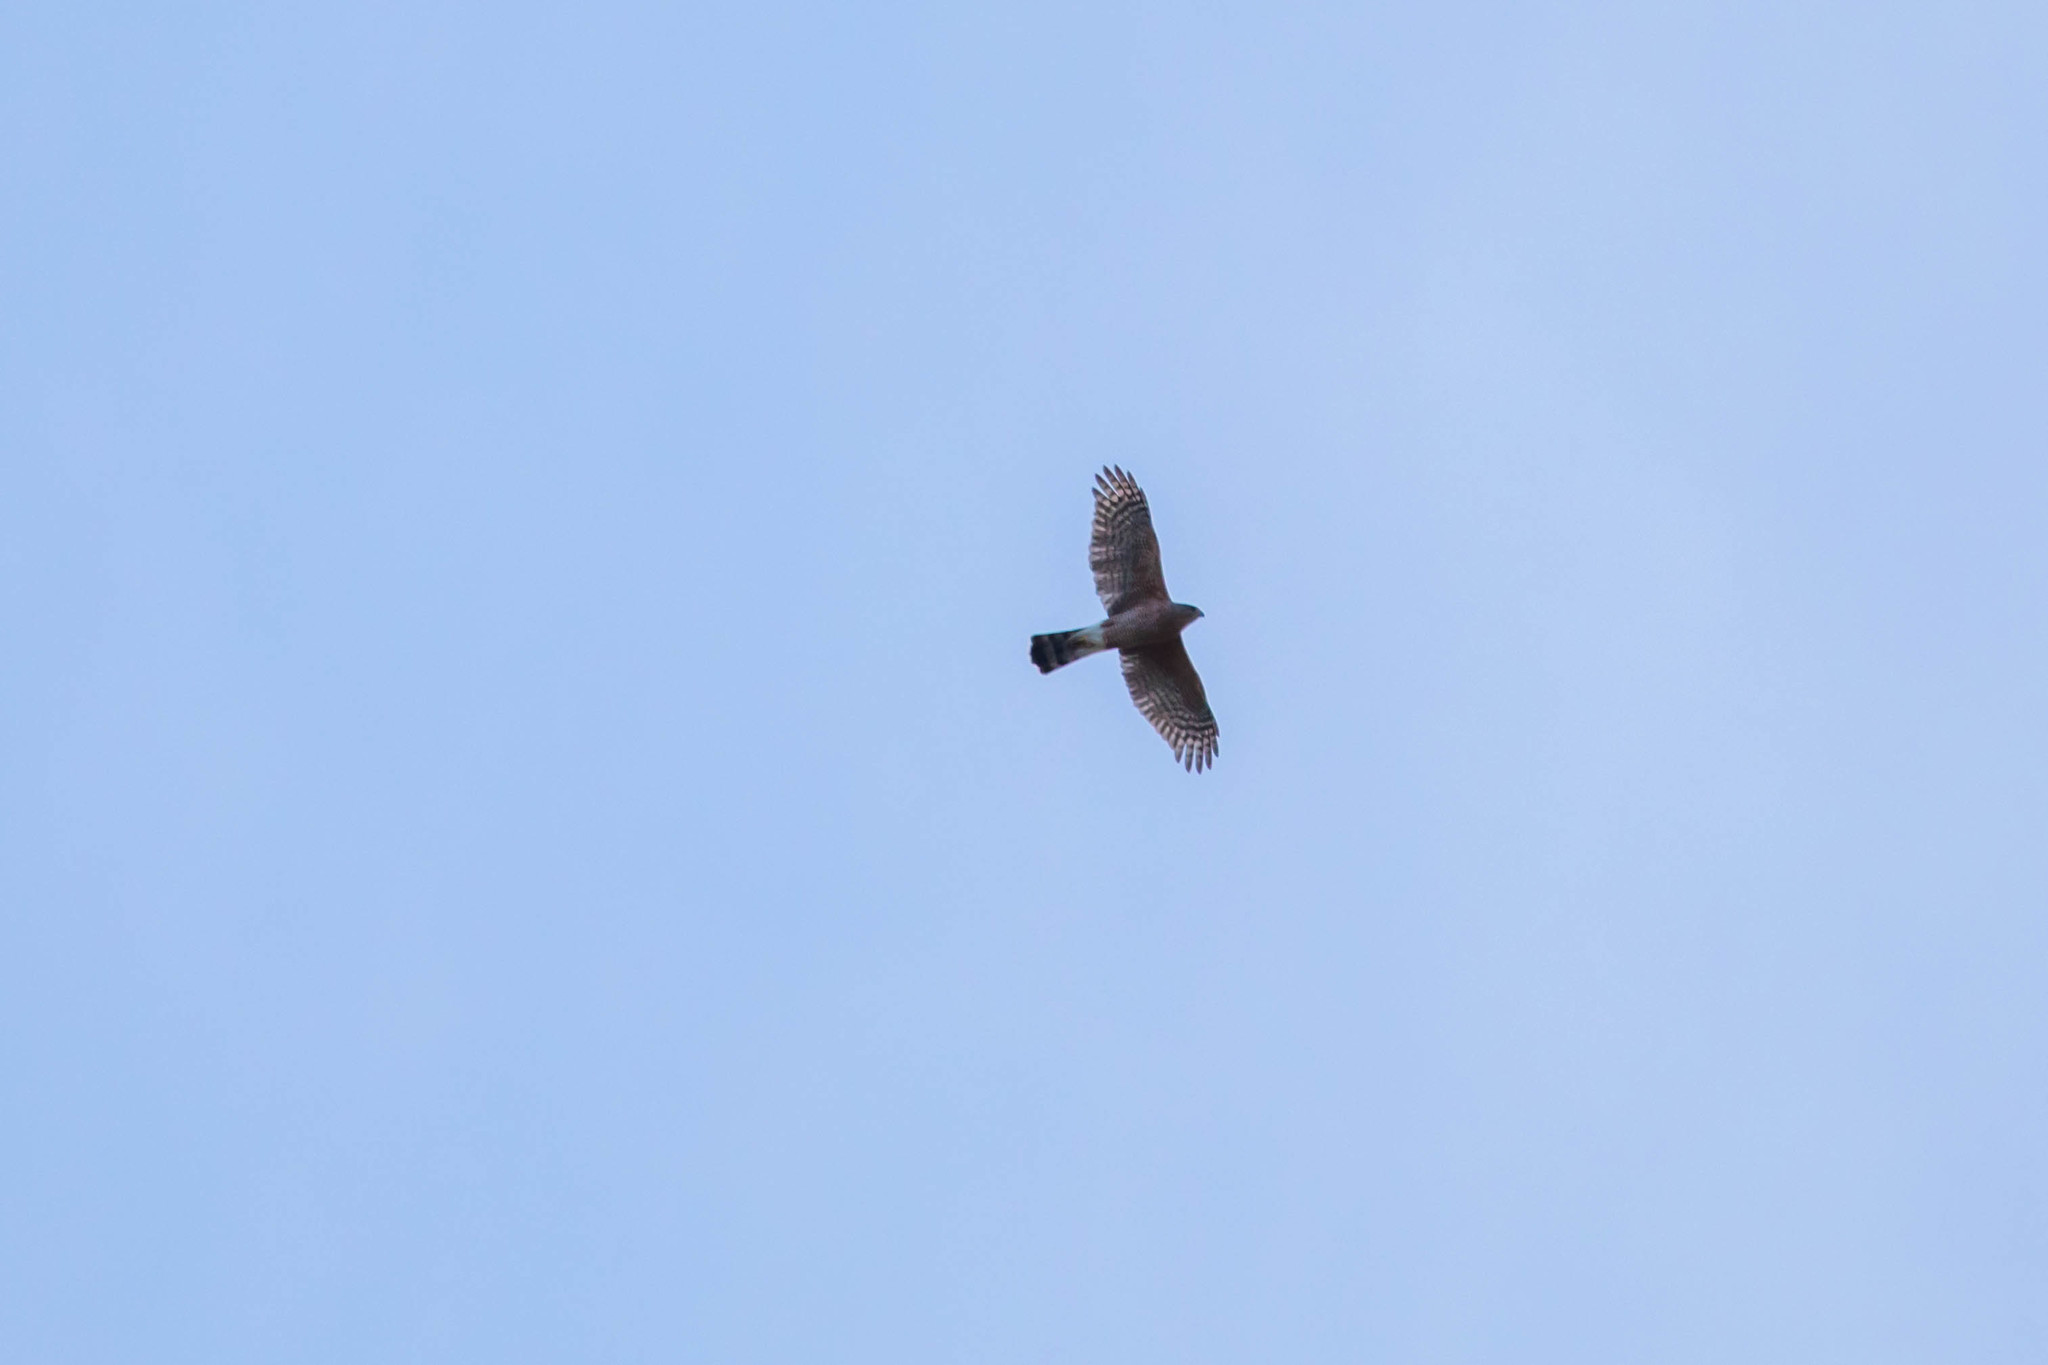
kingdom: Animalia
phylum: Chordata
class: Aves
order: Accipitriformes
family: Accipitridae
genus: Accipiter
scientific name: Accipiter cooperii
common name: Cooper's hawk
